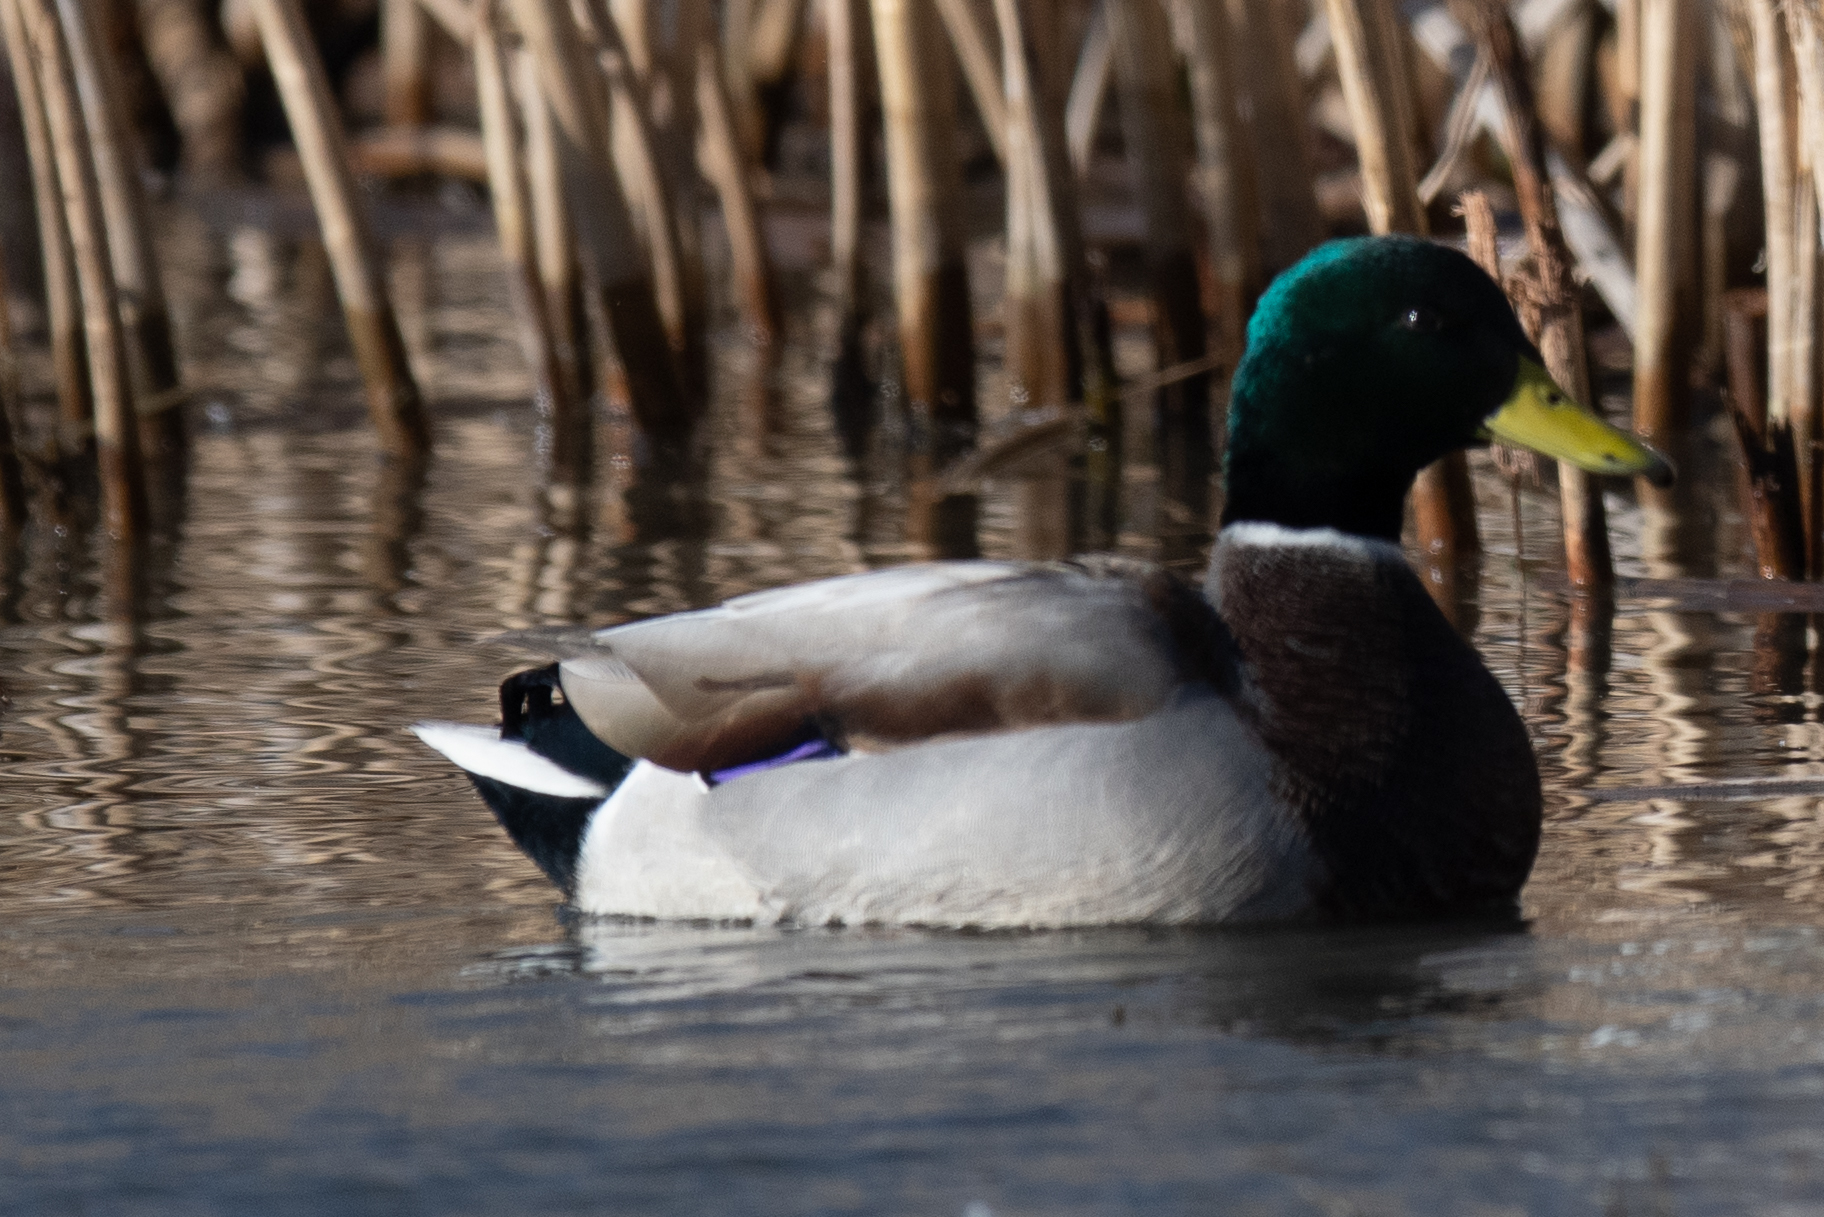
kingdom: Animalia
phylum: Chordata
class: Aves
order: Anseriformes
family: Anatidae
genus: Anas
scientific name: Anas platyrhynchos
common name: Mallard
